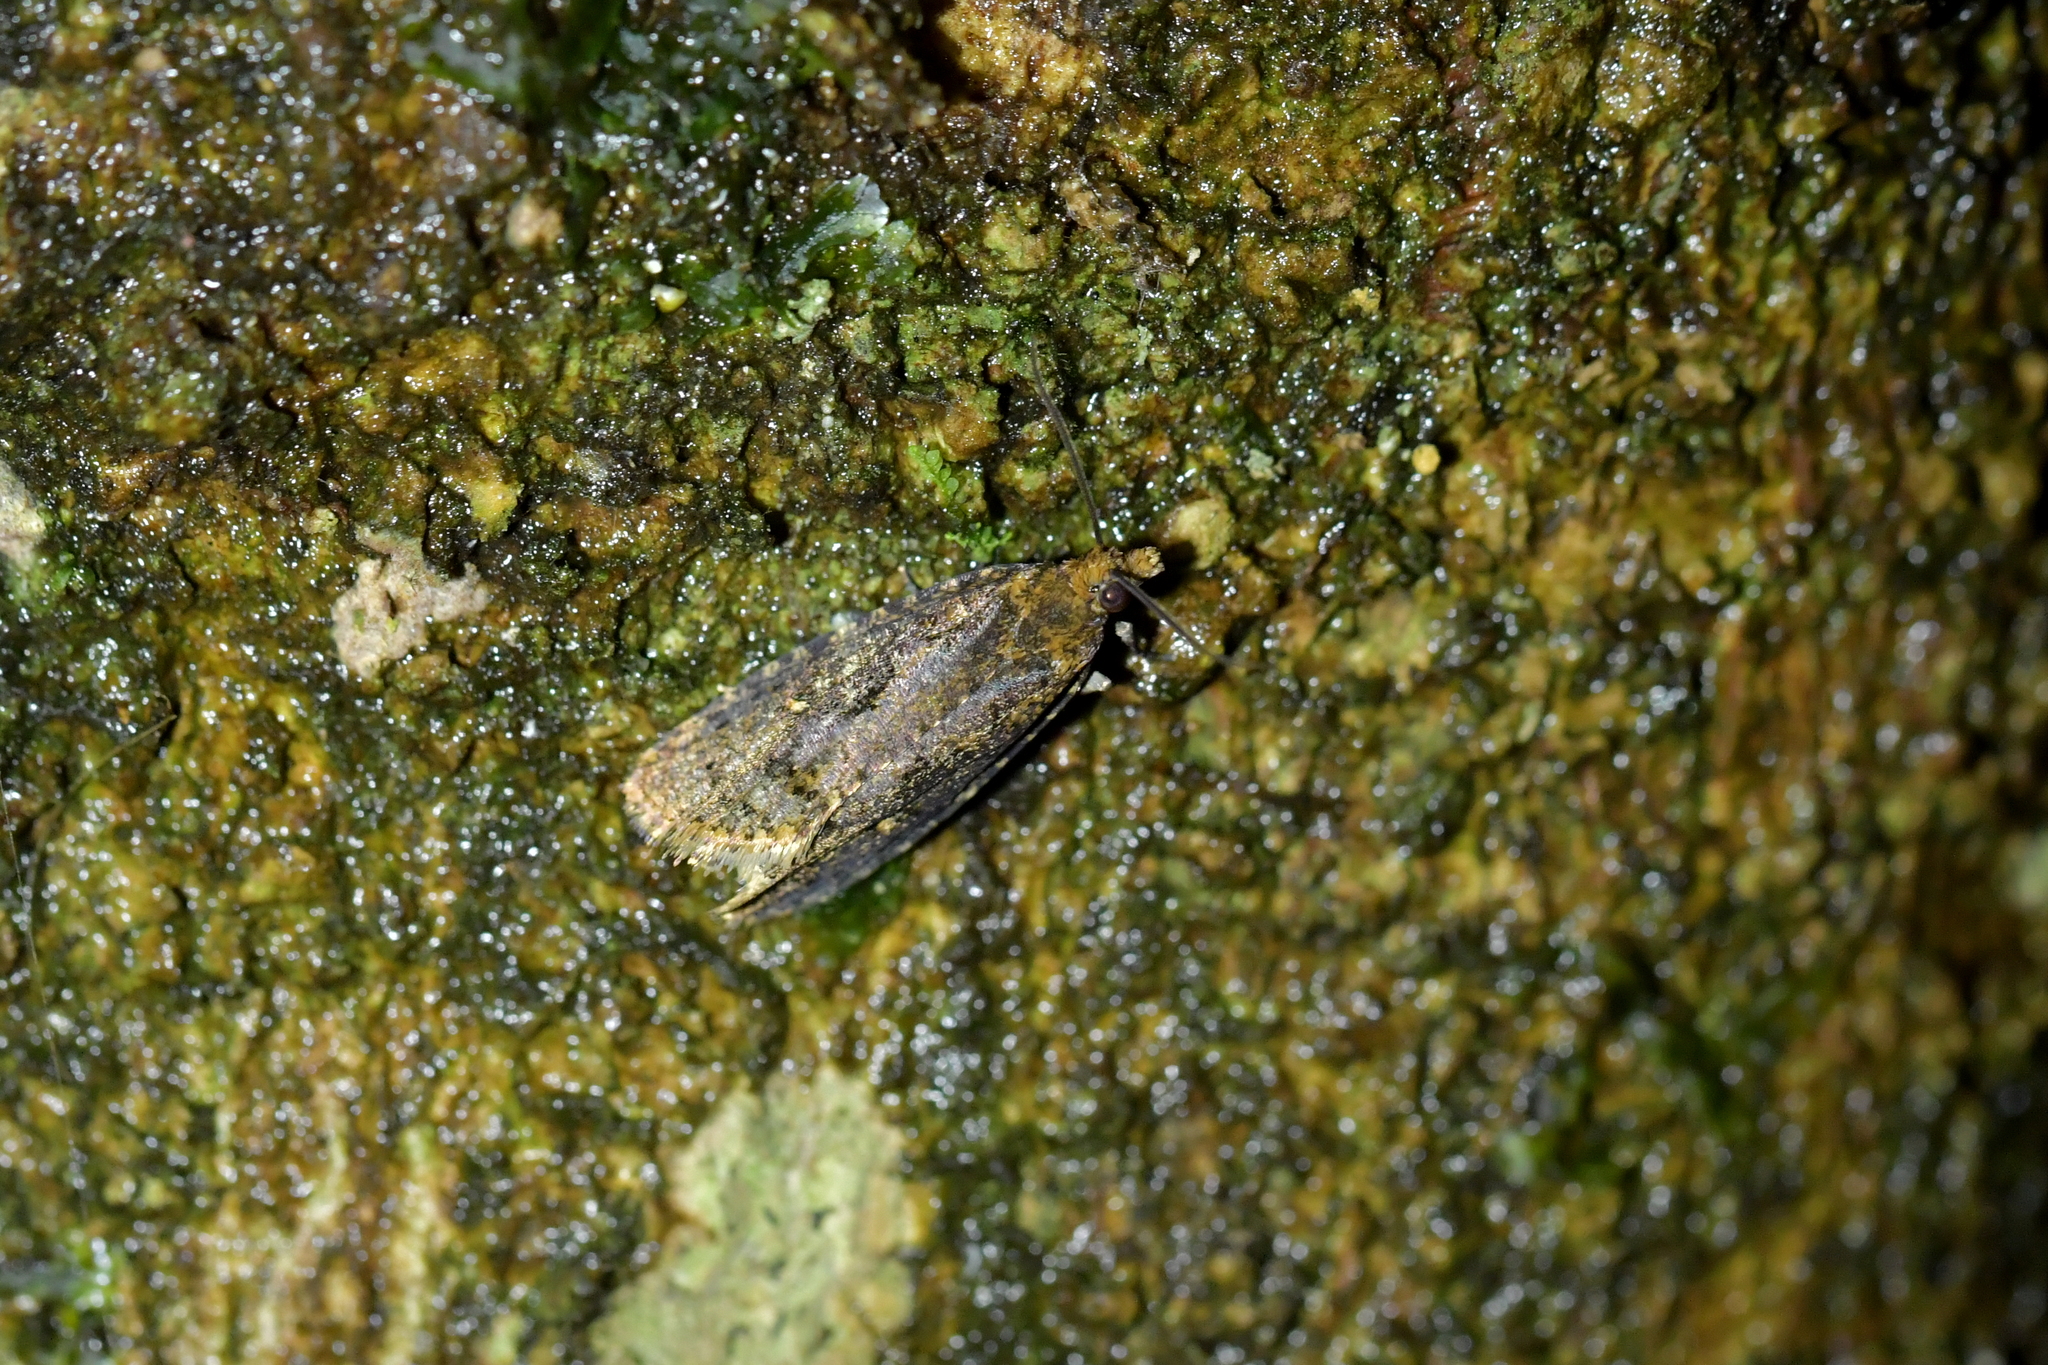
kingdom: Animalia
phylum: Arthropoda
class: Insecta
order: Lepidoptera
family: Tortricidae
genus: Cryptaspasma
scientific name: Cryptaspasma querula
